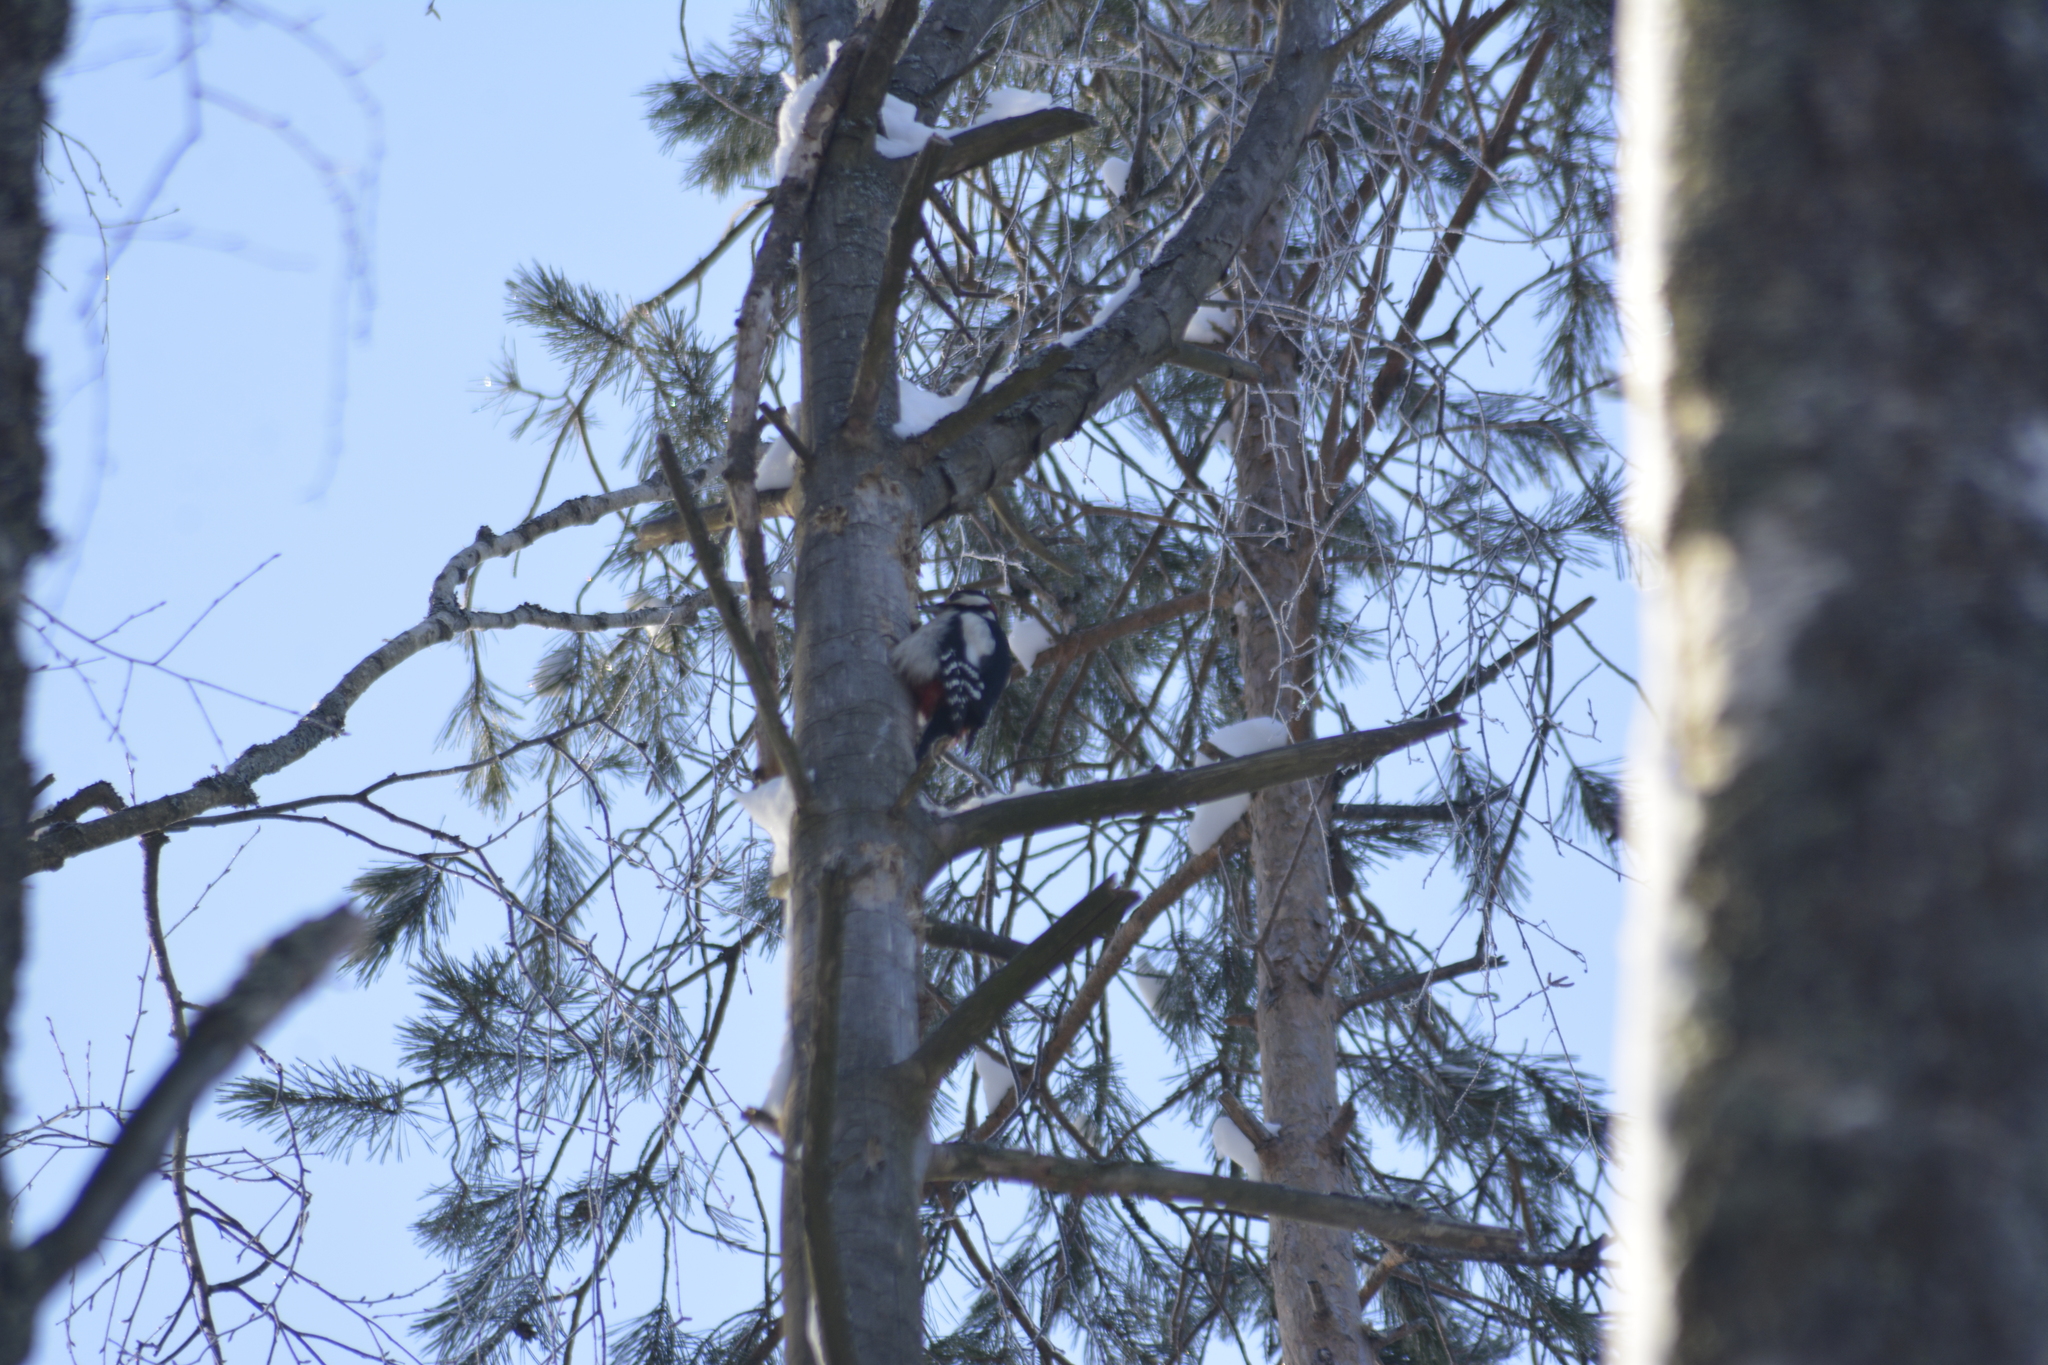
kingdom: Animalia
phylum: Chordata
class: Aves
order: Piciformes
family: Picidae
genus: Dendrocopos
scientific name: Dendrocopos major
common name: Great spotted woodpecker
